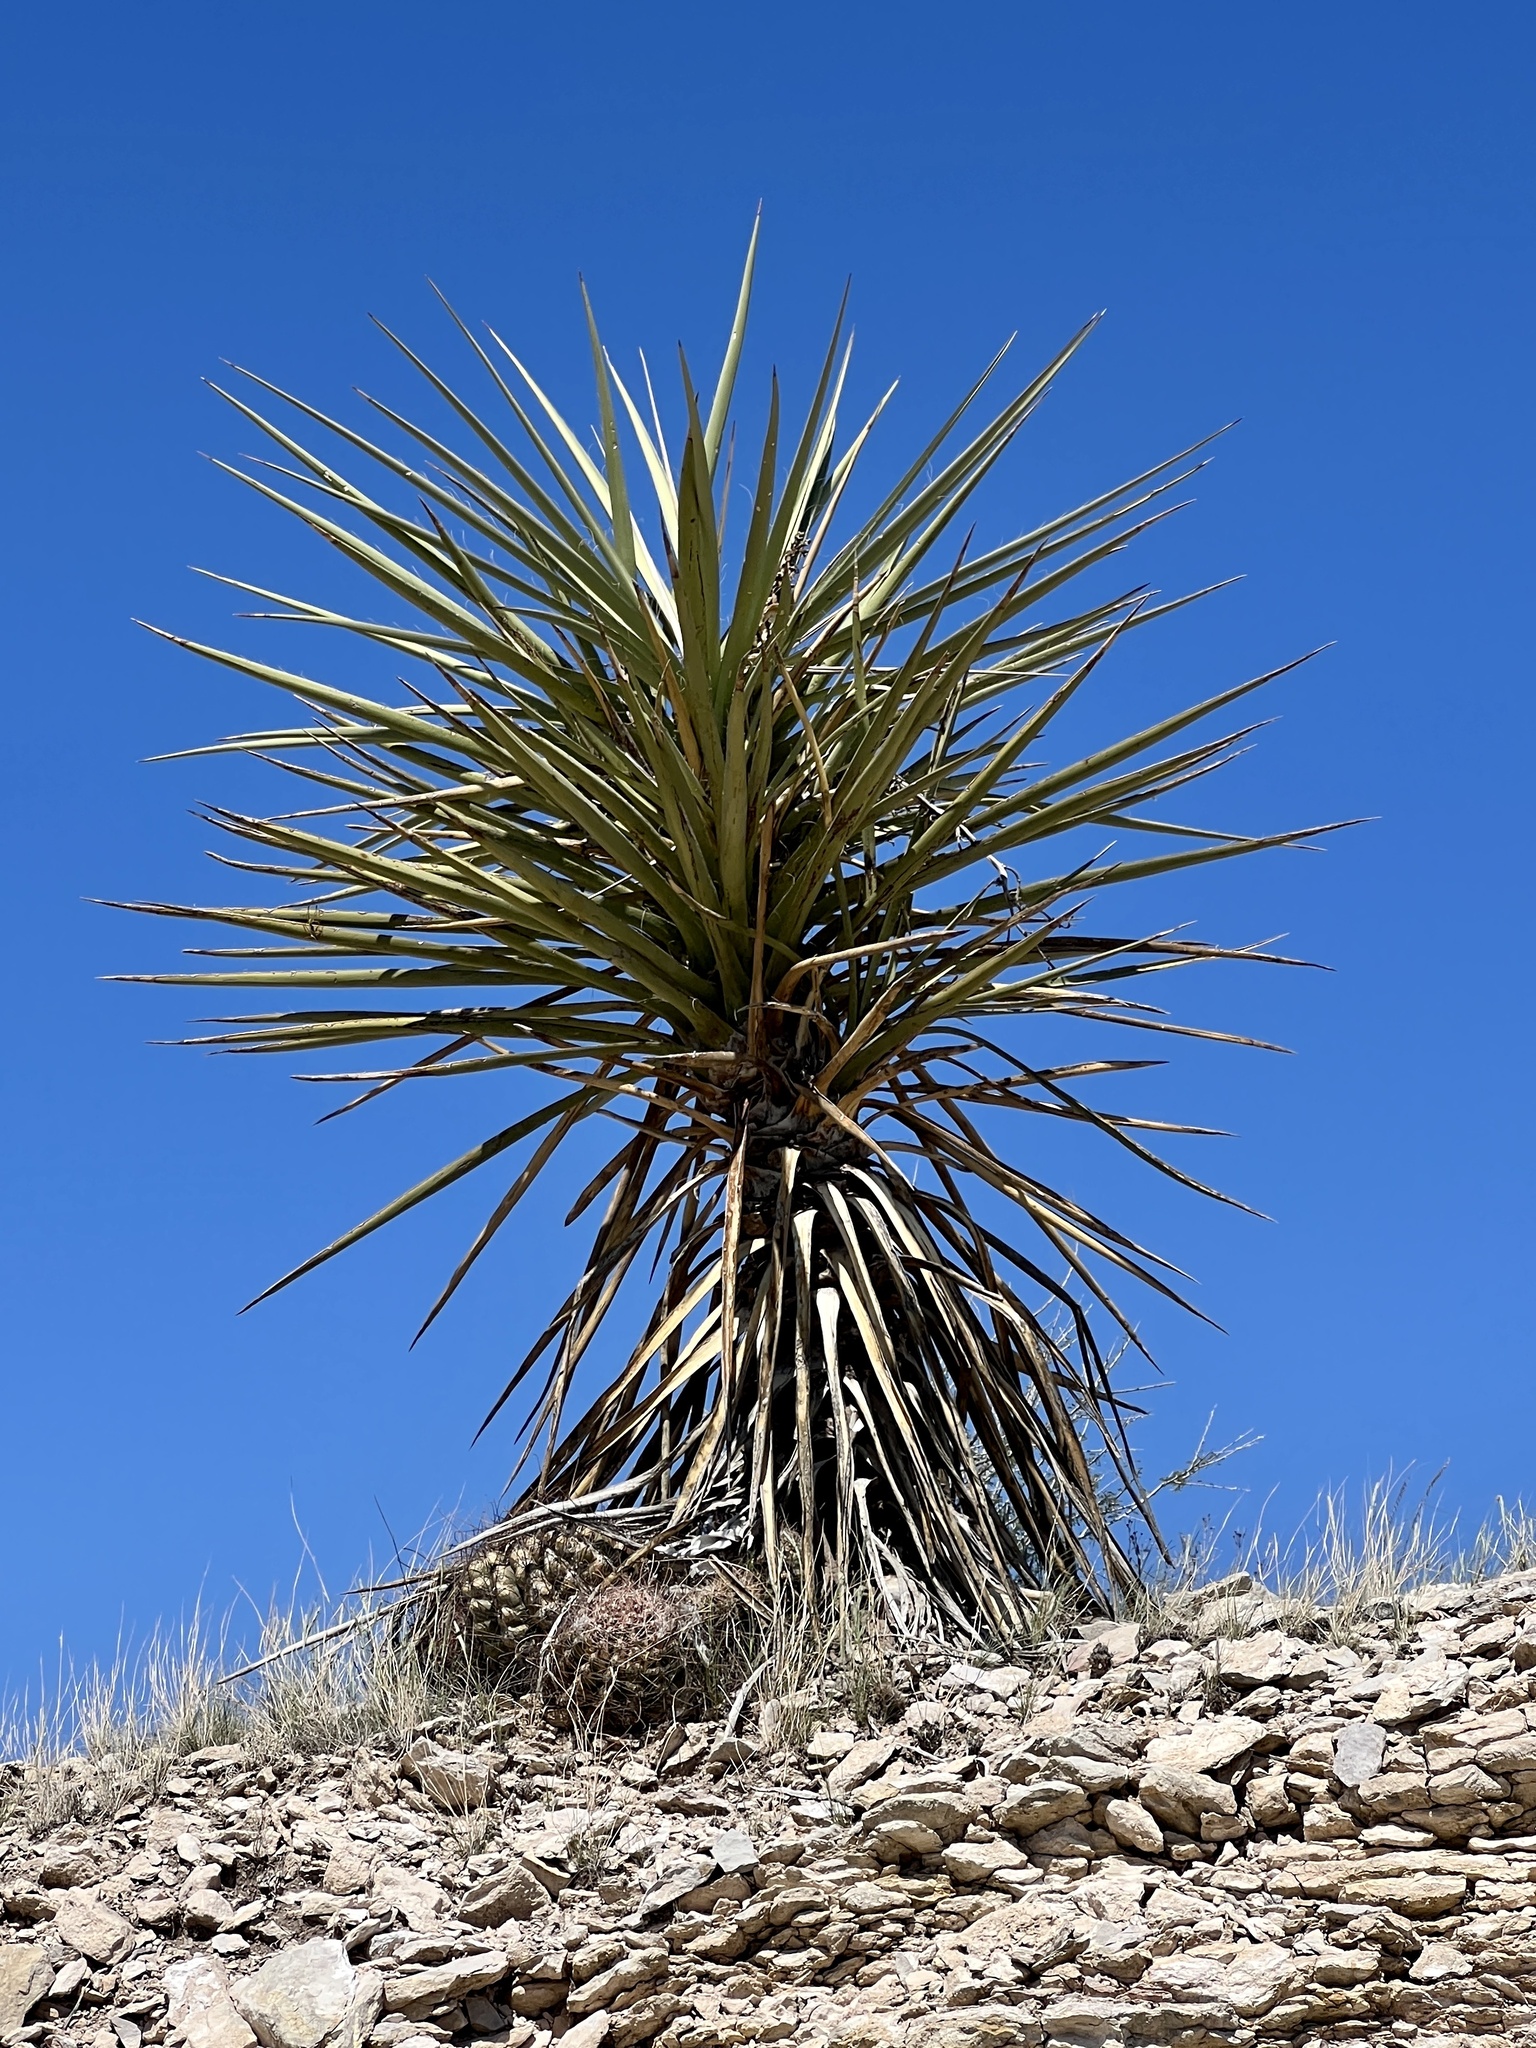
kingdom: Plantae
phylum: Tracheophyta
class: Liliopsida
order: Asparagales
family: Asparagaceae
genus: Yucca
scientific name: Yucca treculiana
